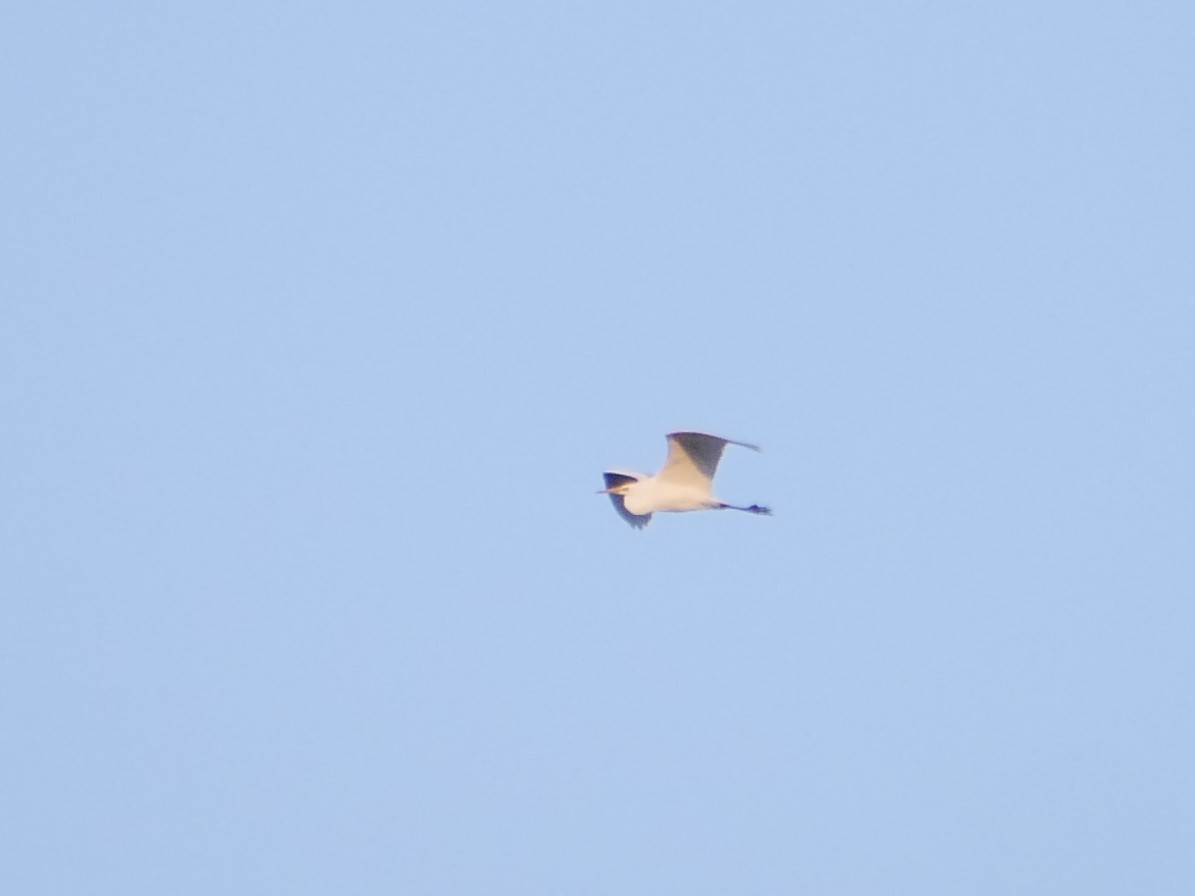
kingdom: Animalia
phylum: Chordata
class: Aves
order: Pelecaniformes
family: Ardeidae
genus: Ardea
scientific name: Ardea alba
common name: Great egret
